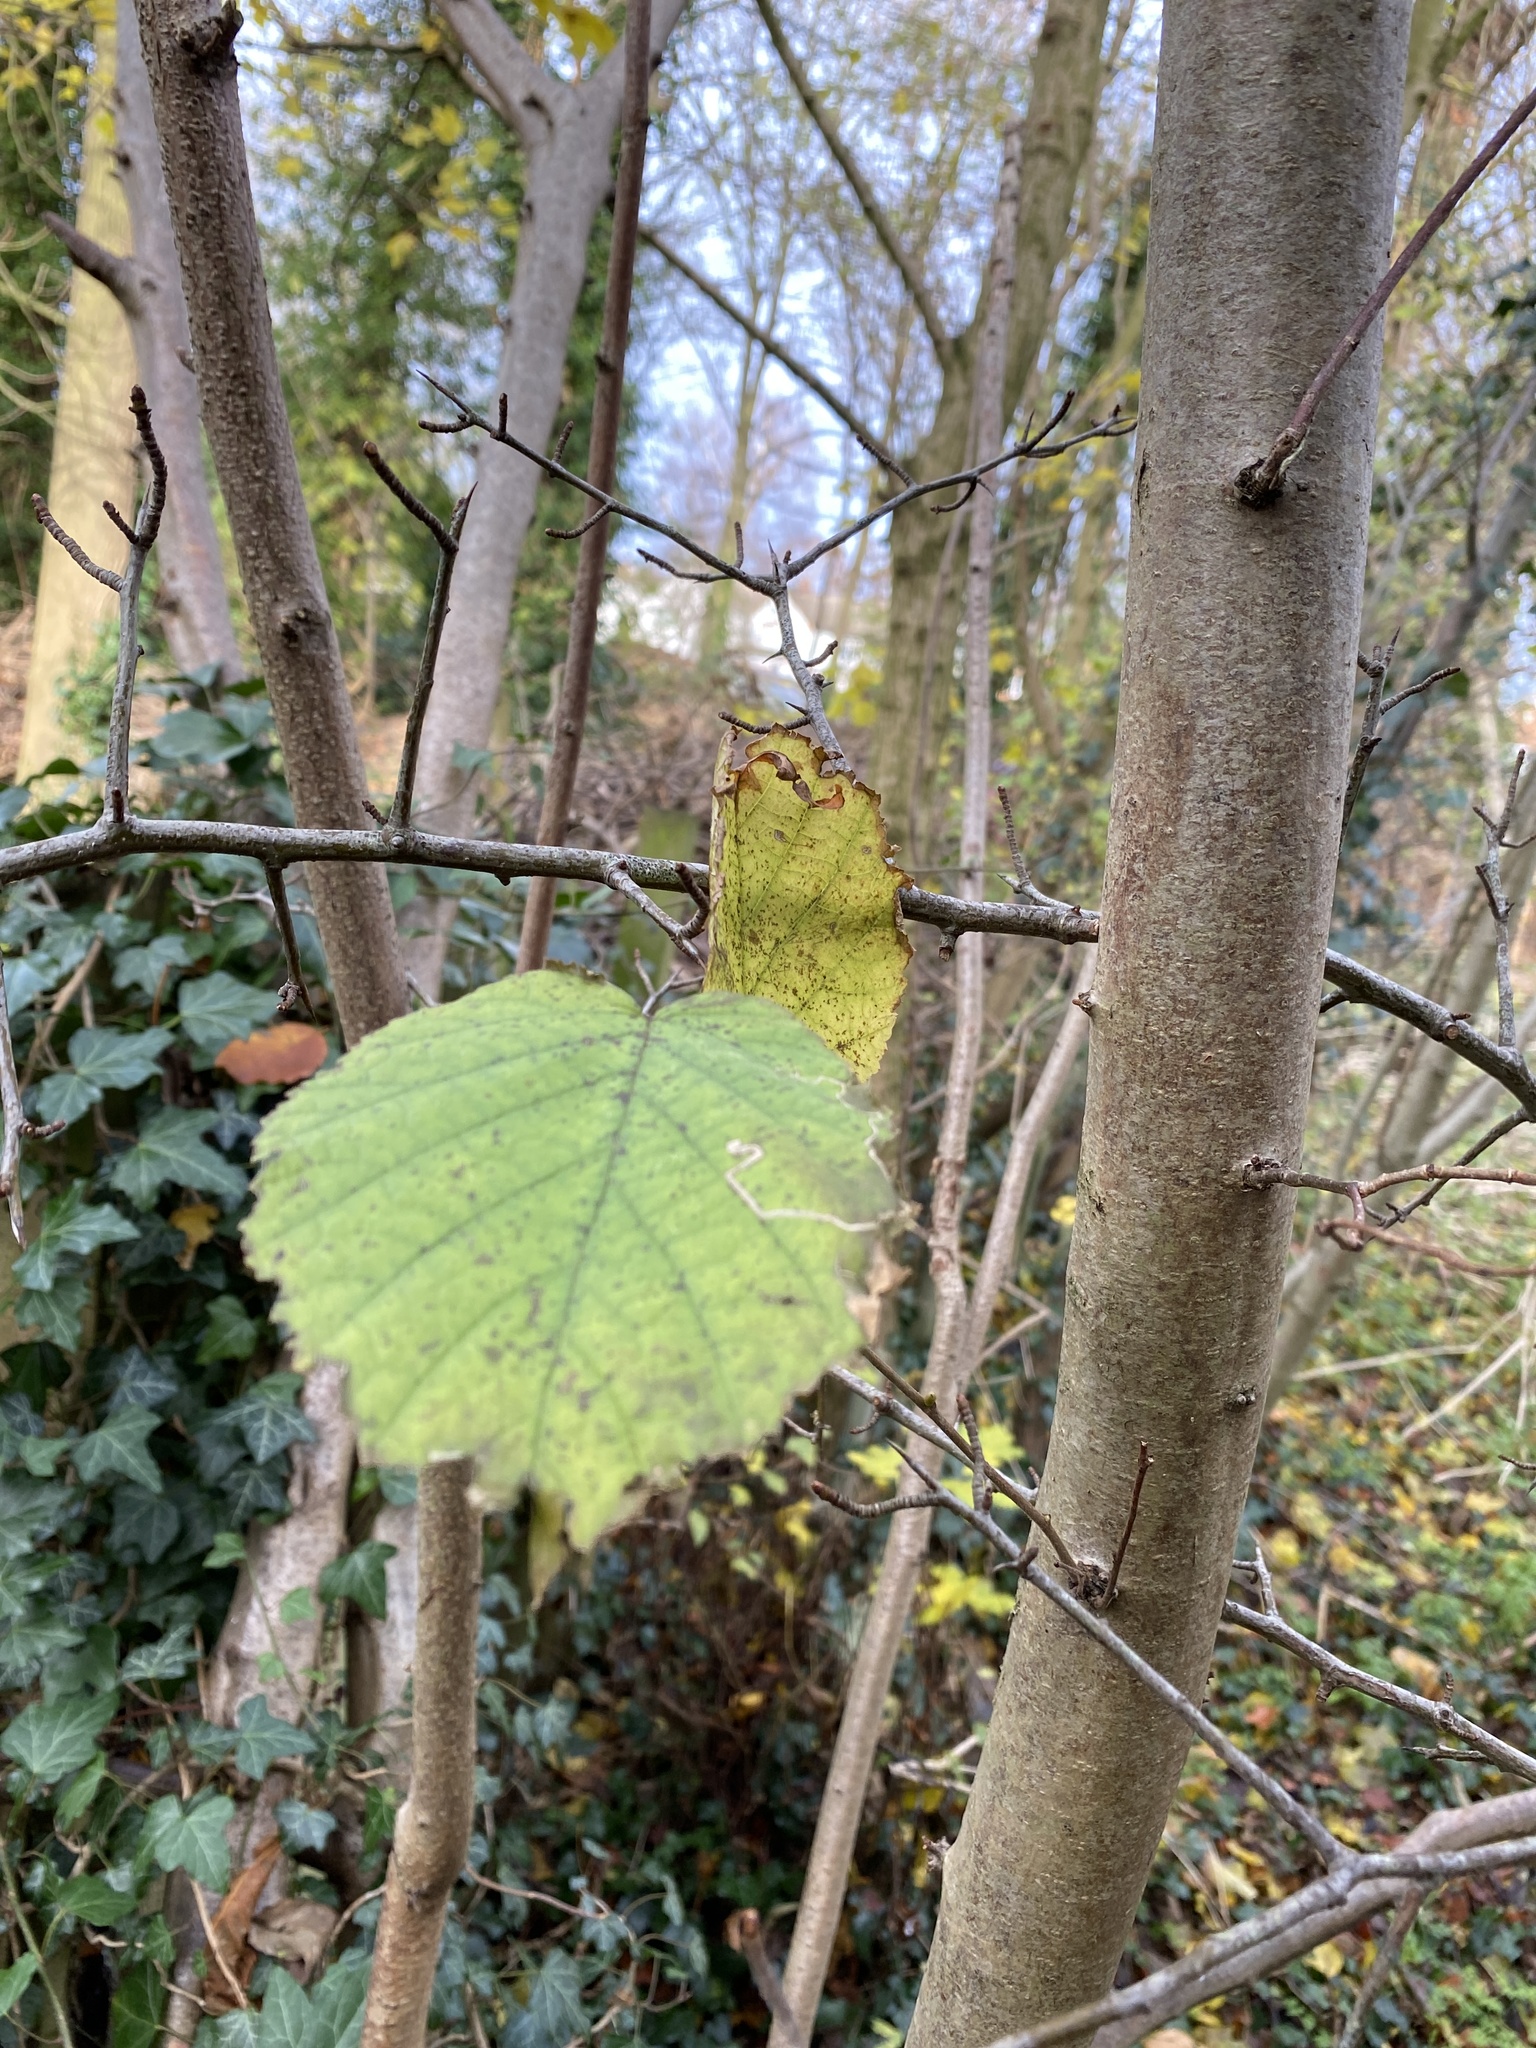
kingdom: Plantae
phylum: Tracheophyta
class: Magnoliopsida
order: Fagales
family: Betulaceae
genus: Corylus
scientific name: Corylus avellana
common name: European hazel
